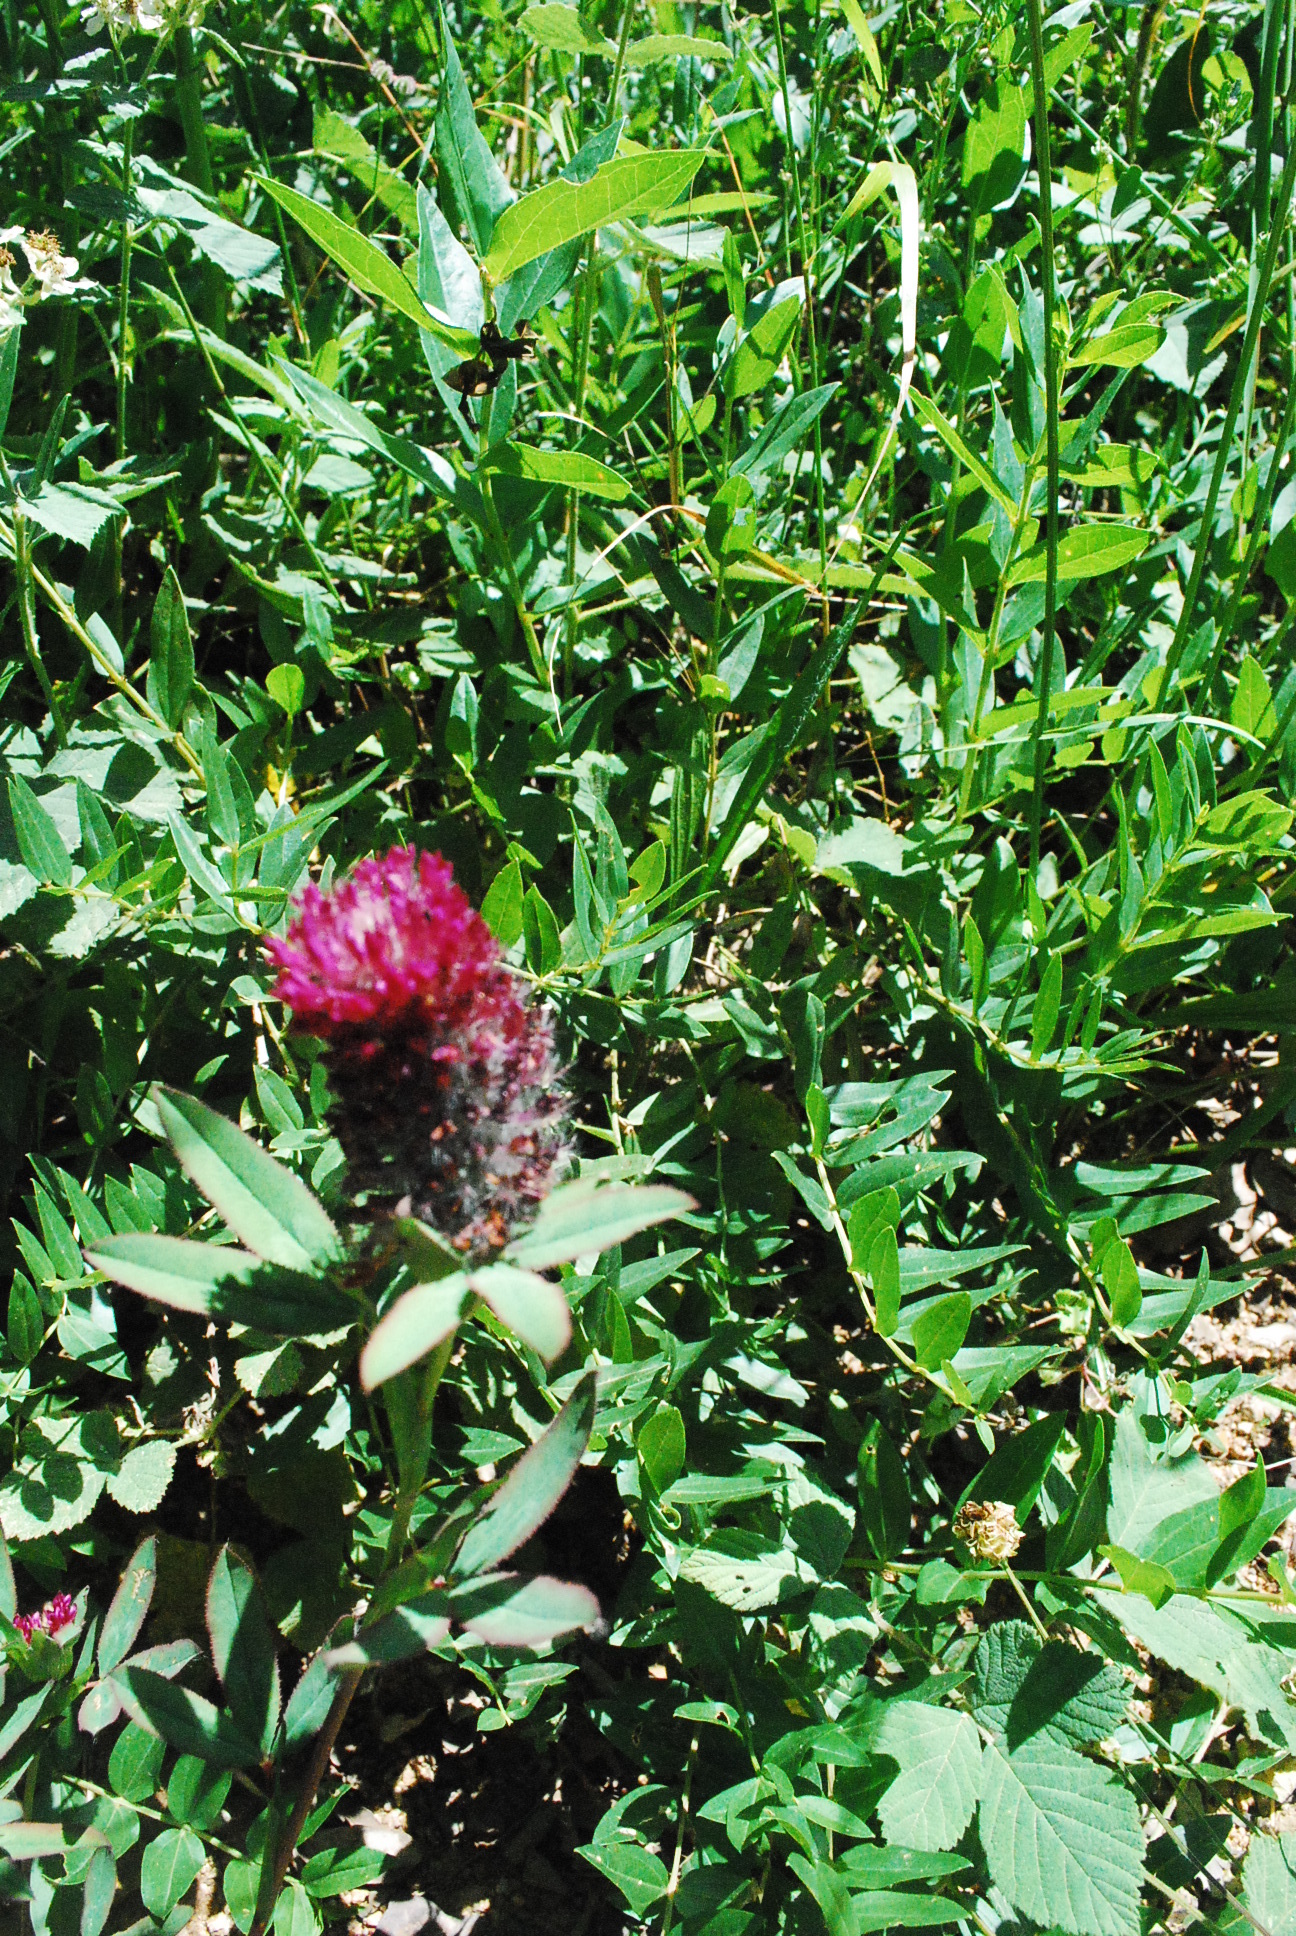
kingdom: Plantae
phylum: Tracheophyta
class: Magnoliopsida
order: Fabales
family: Fabaceae
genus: Trifolium
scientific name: Trifolium rubens
